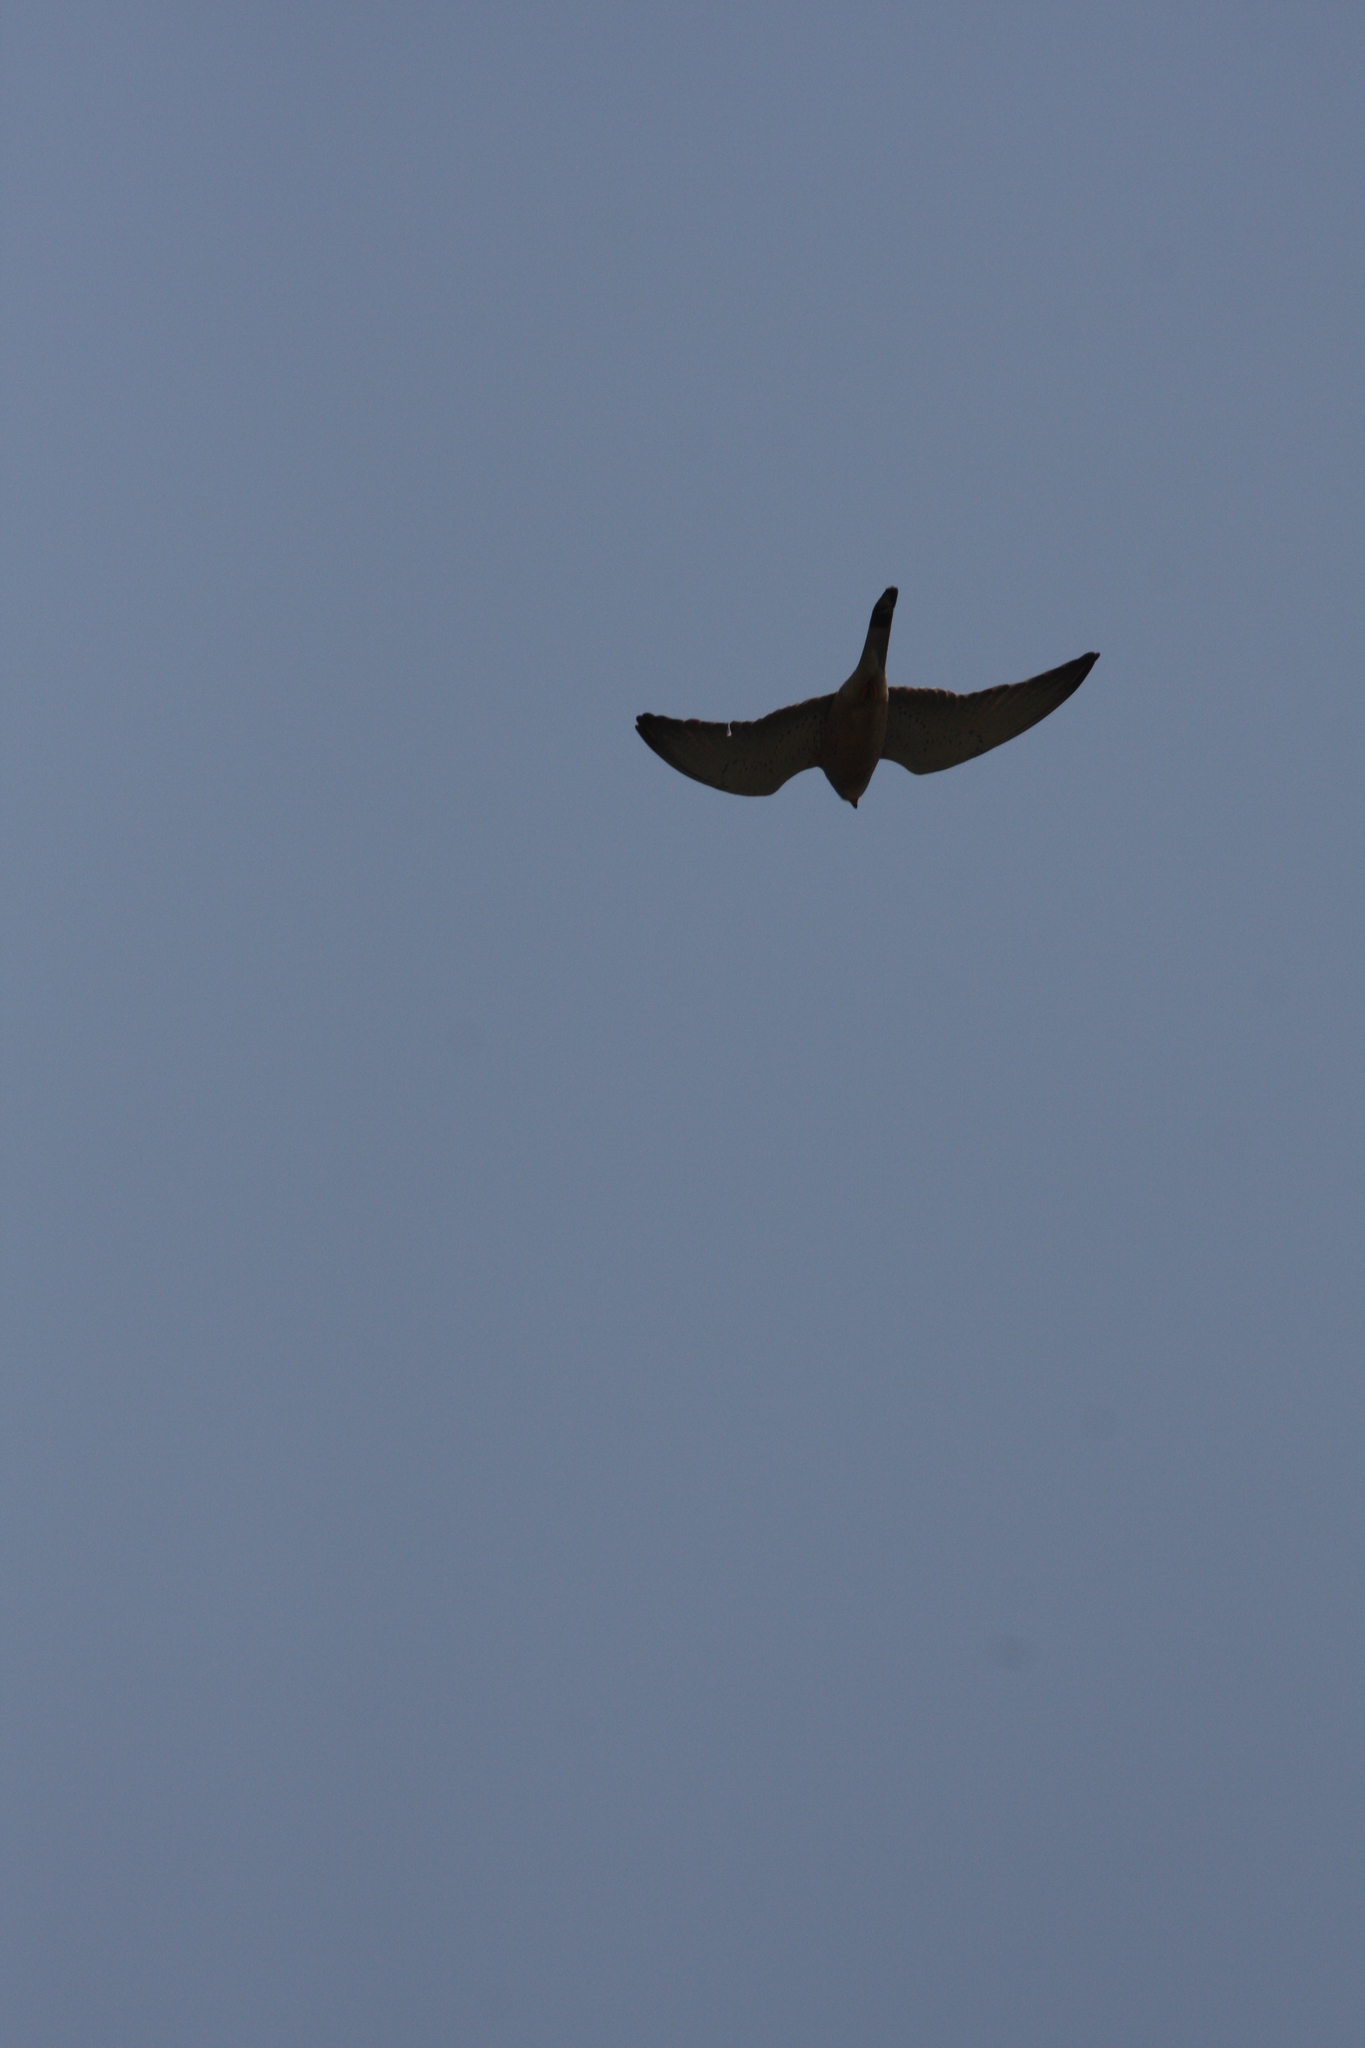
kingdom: Animalia
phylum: Chordata
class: Aves
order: Falconiformes
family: Falconidae
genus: Falco
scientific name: Falco naumanni
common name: Lesser kestrel
